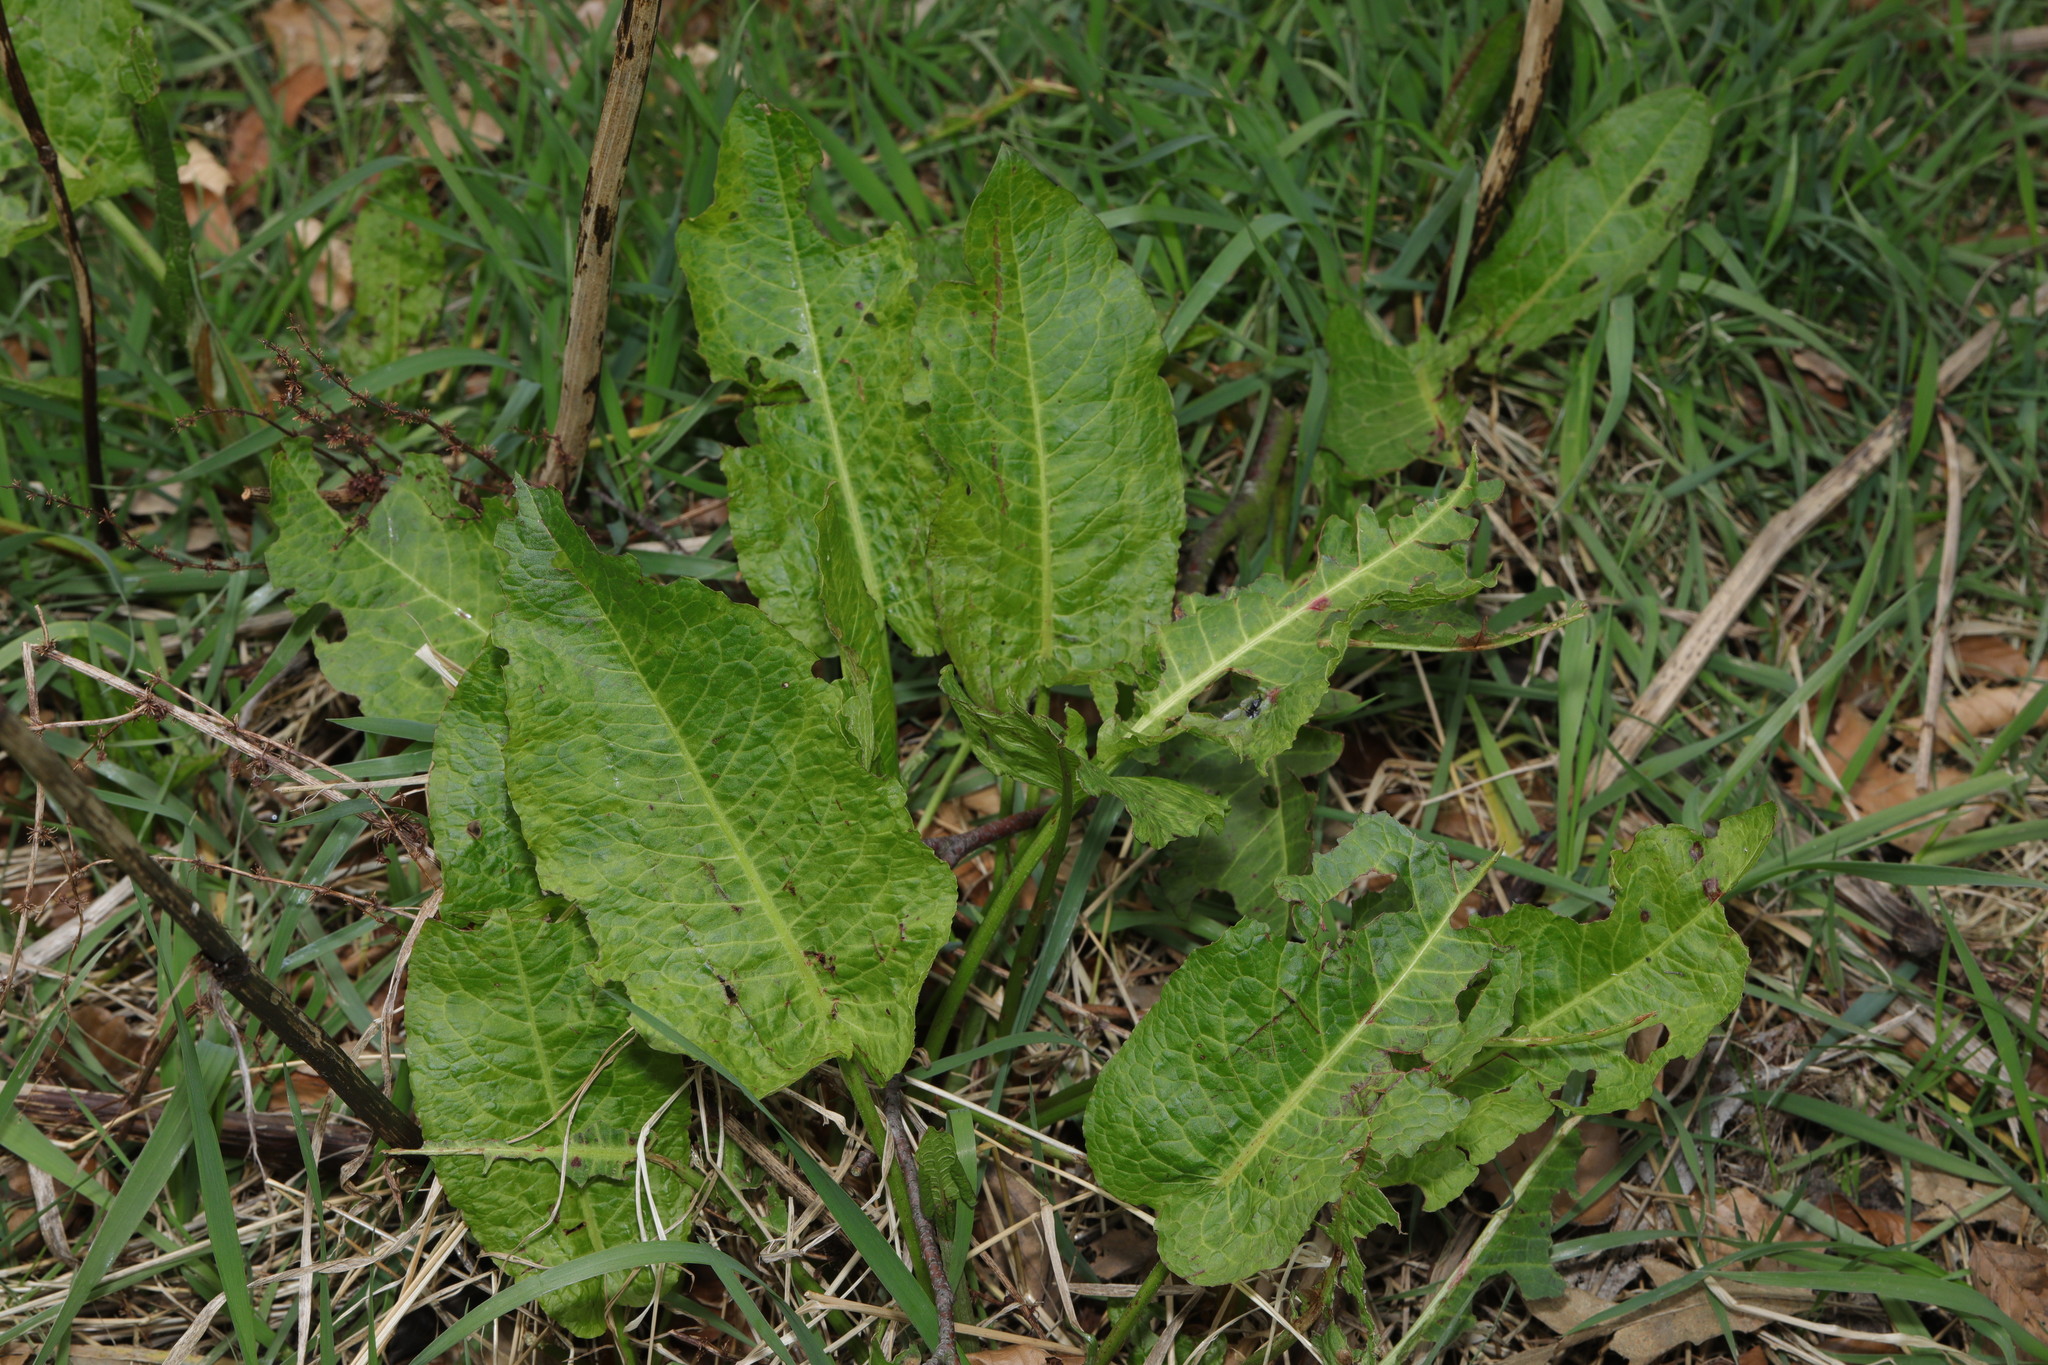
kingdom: Plantae
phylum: Tracheophyta
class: Magnoliopsida
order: Caryophyllales
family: Polygonaceae
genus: Rumex
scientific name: Rumex obtusifolius
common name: Bitter dock
